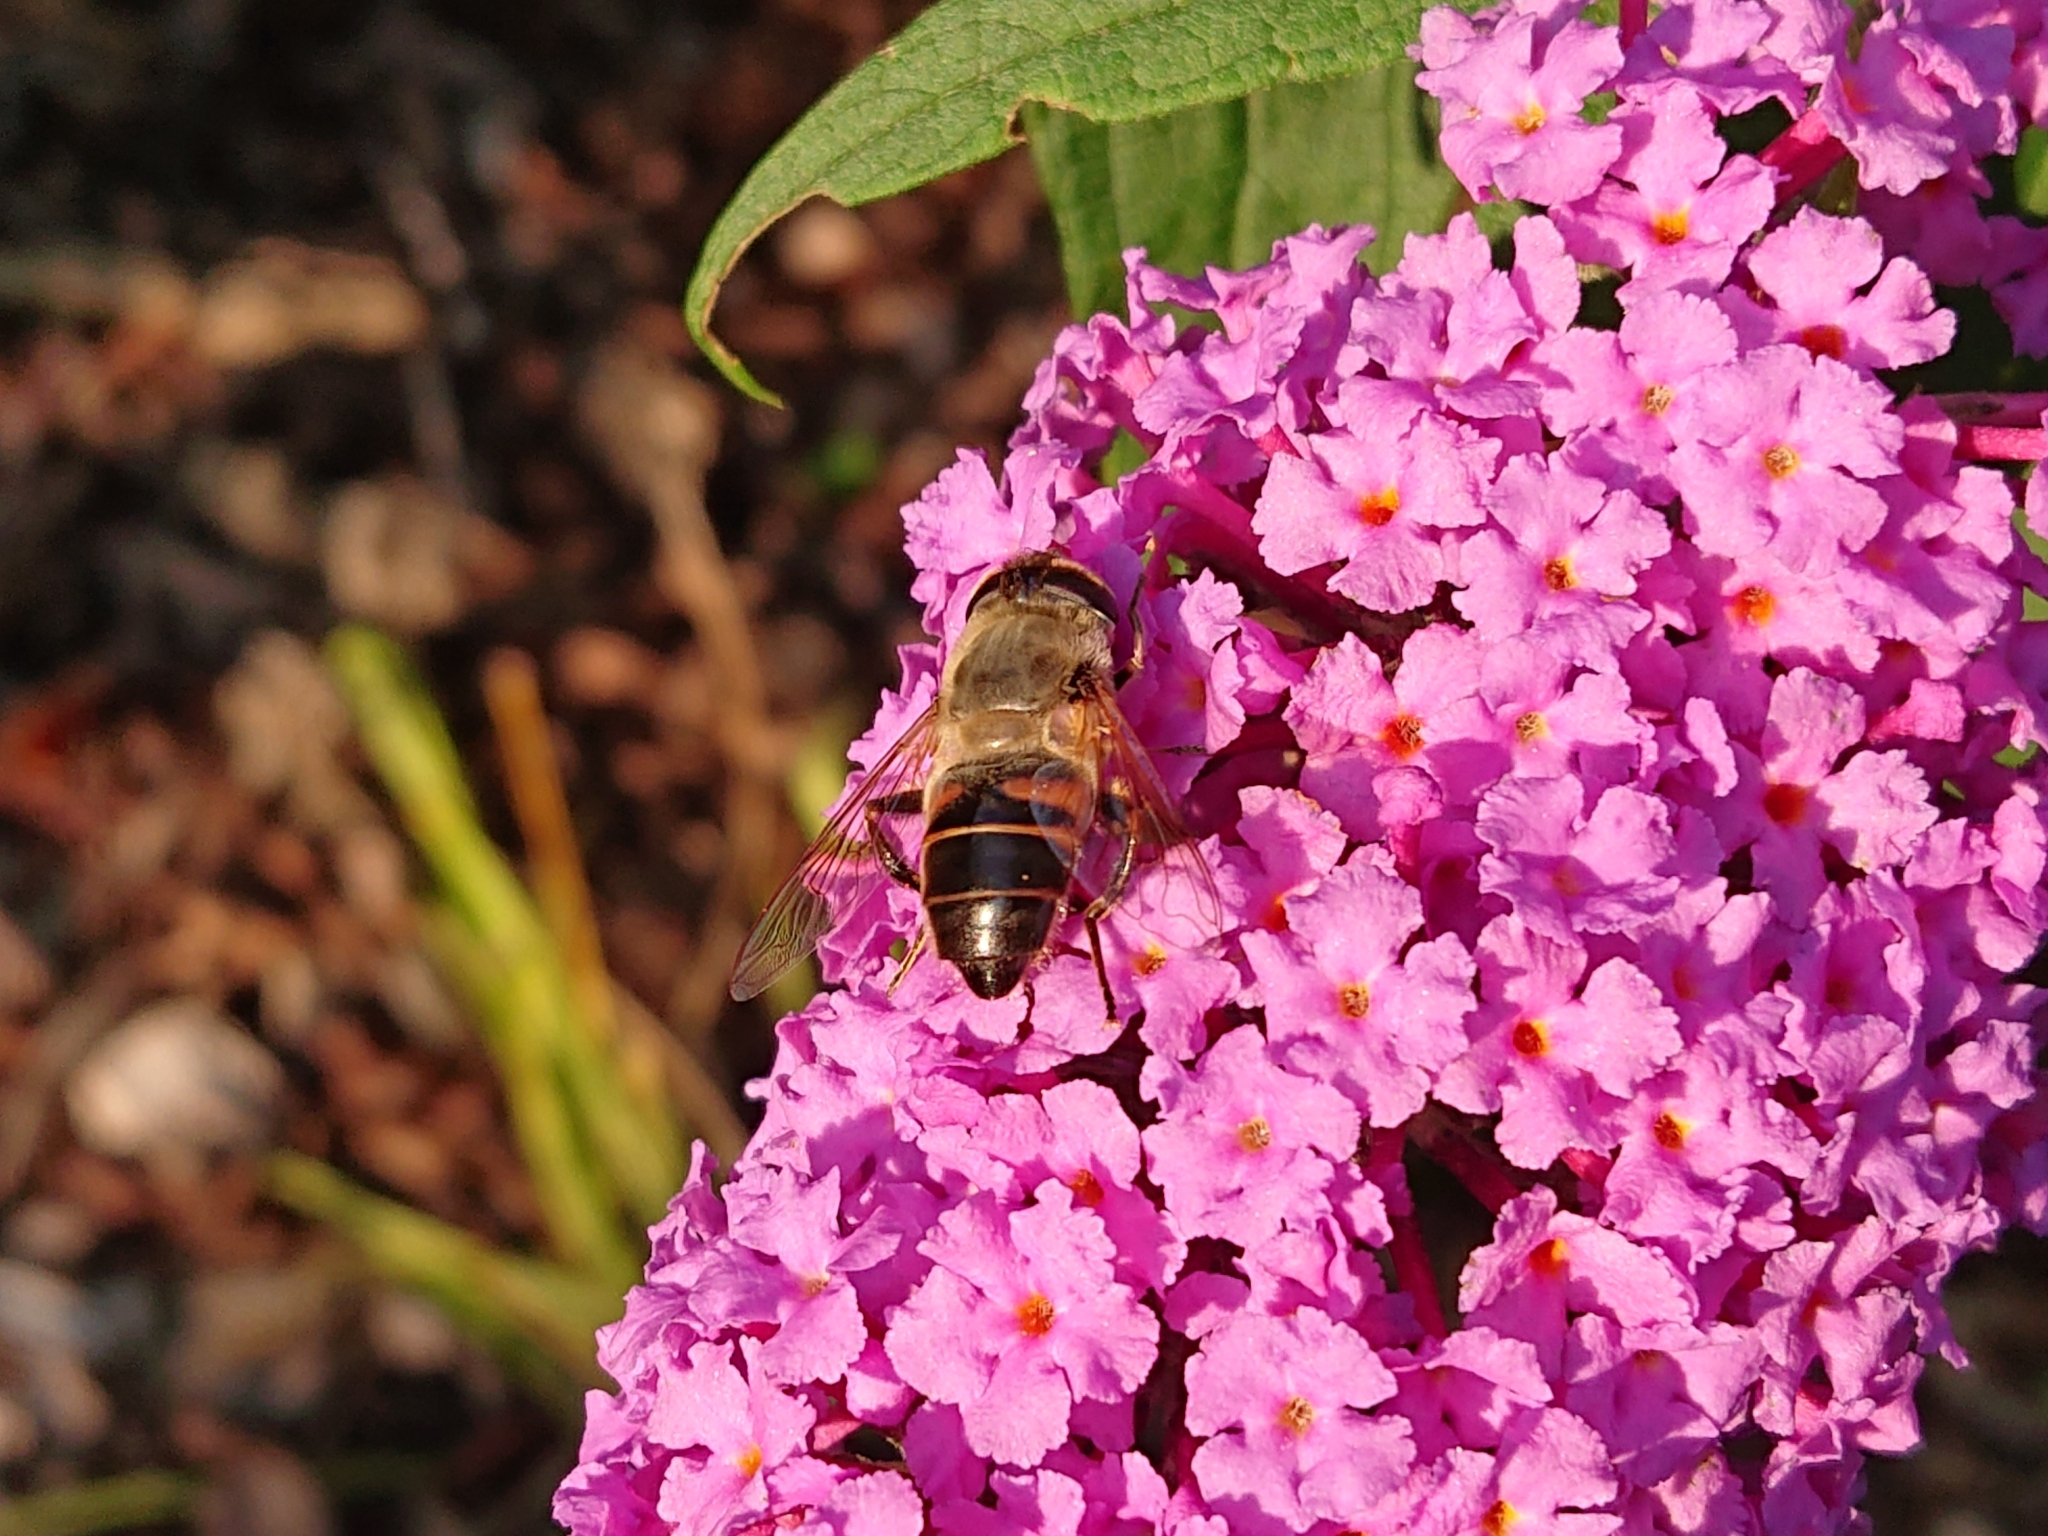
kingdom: Animalia
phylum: Arthropoda
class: Insecta
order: Diptera
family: Syrphidae
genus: Eristalis
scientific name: Eristalis tenax
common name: Drone fly
